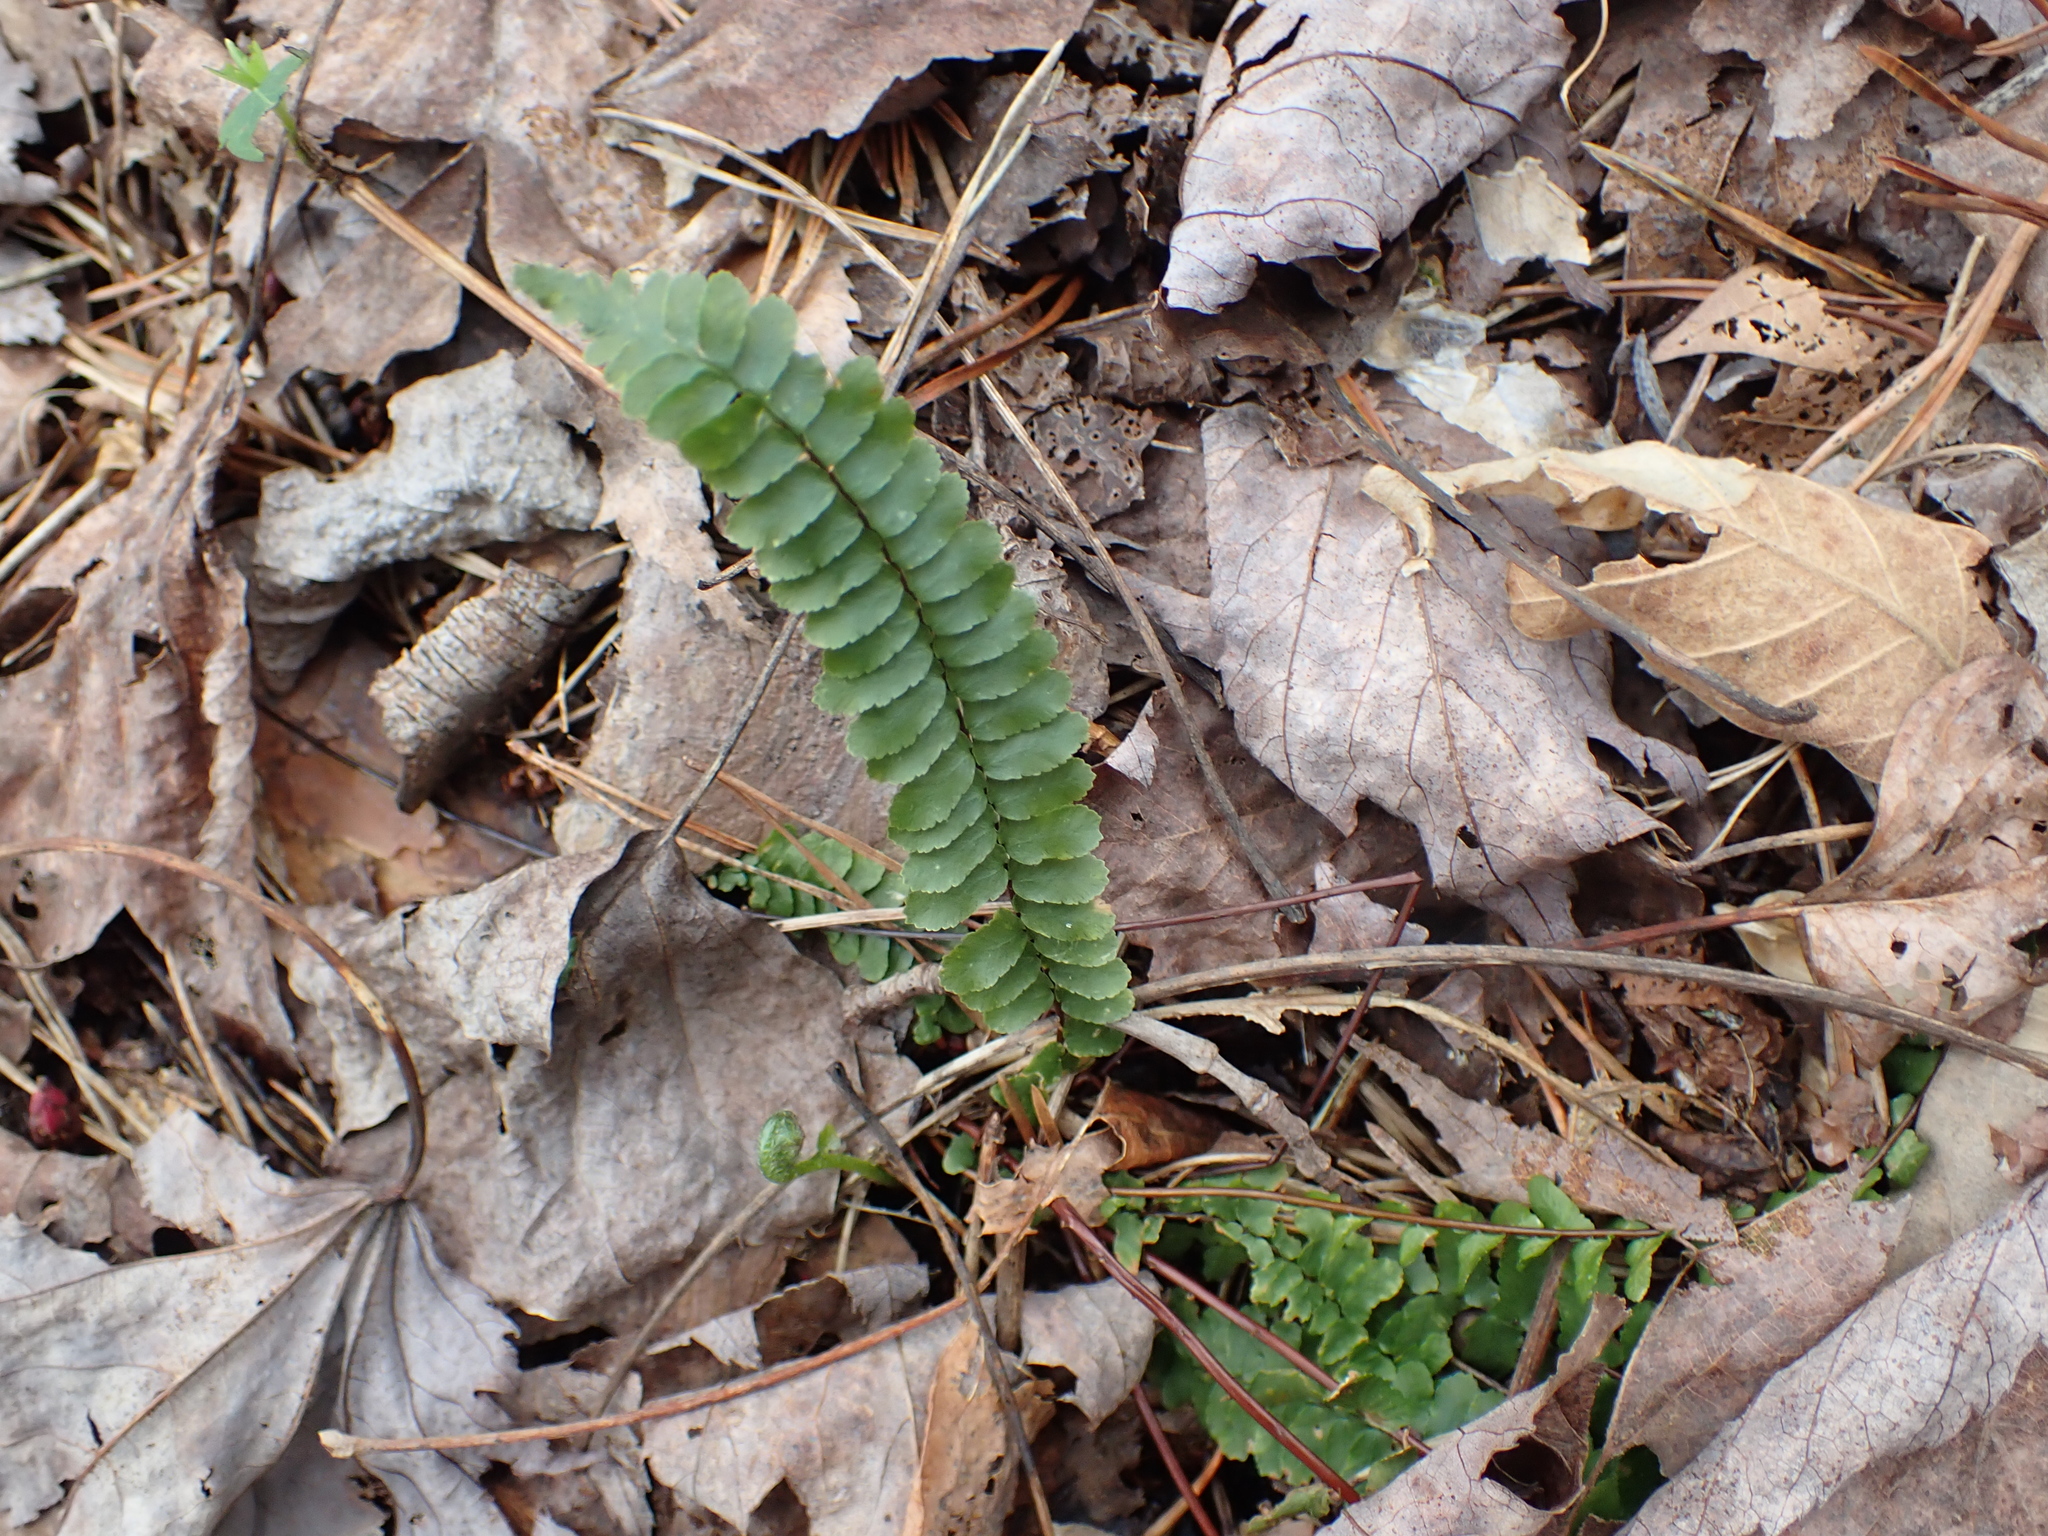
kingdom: Plantae
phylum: Tracheophyta
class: Polypodiopsida
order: Polypodiales
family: Aspleniaceae
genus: Asplenium
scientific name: Asplenium platyneuron
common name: Ebony spleenwort
